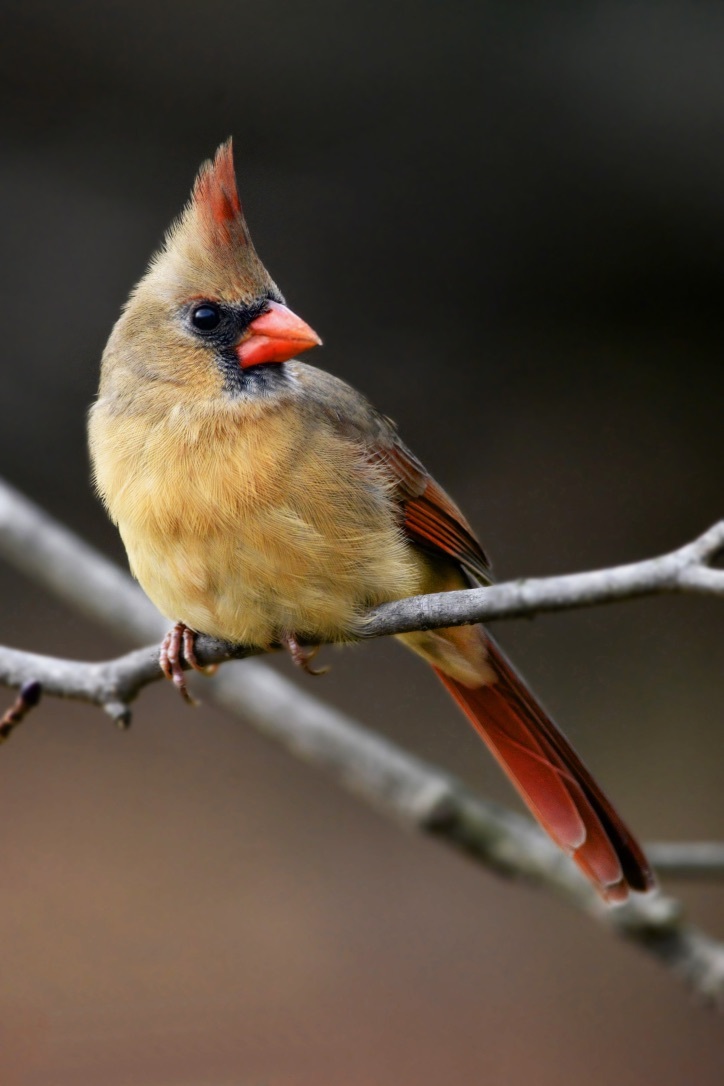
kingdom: Animalia
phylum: Chordata
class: Aves
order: Passeriformes
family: Cardinalidae
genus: Cardinalis
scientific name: Cardinalis cardinalis
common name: Northern cardinal
